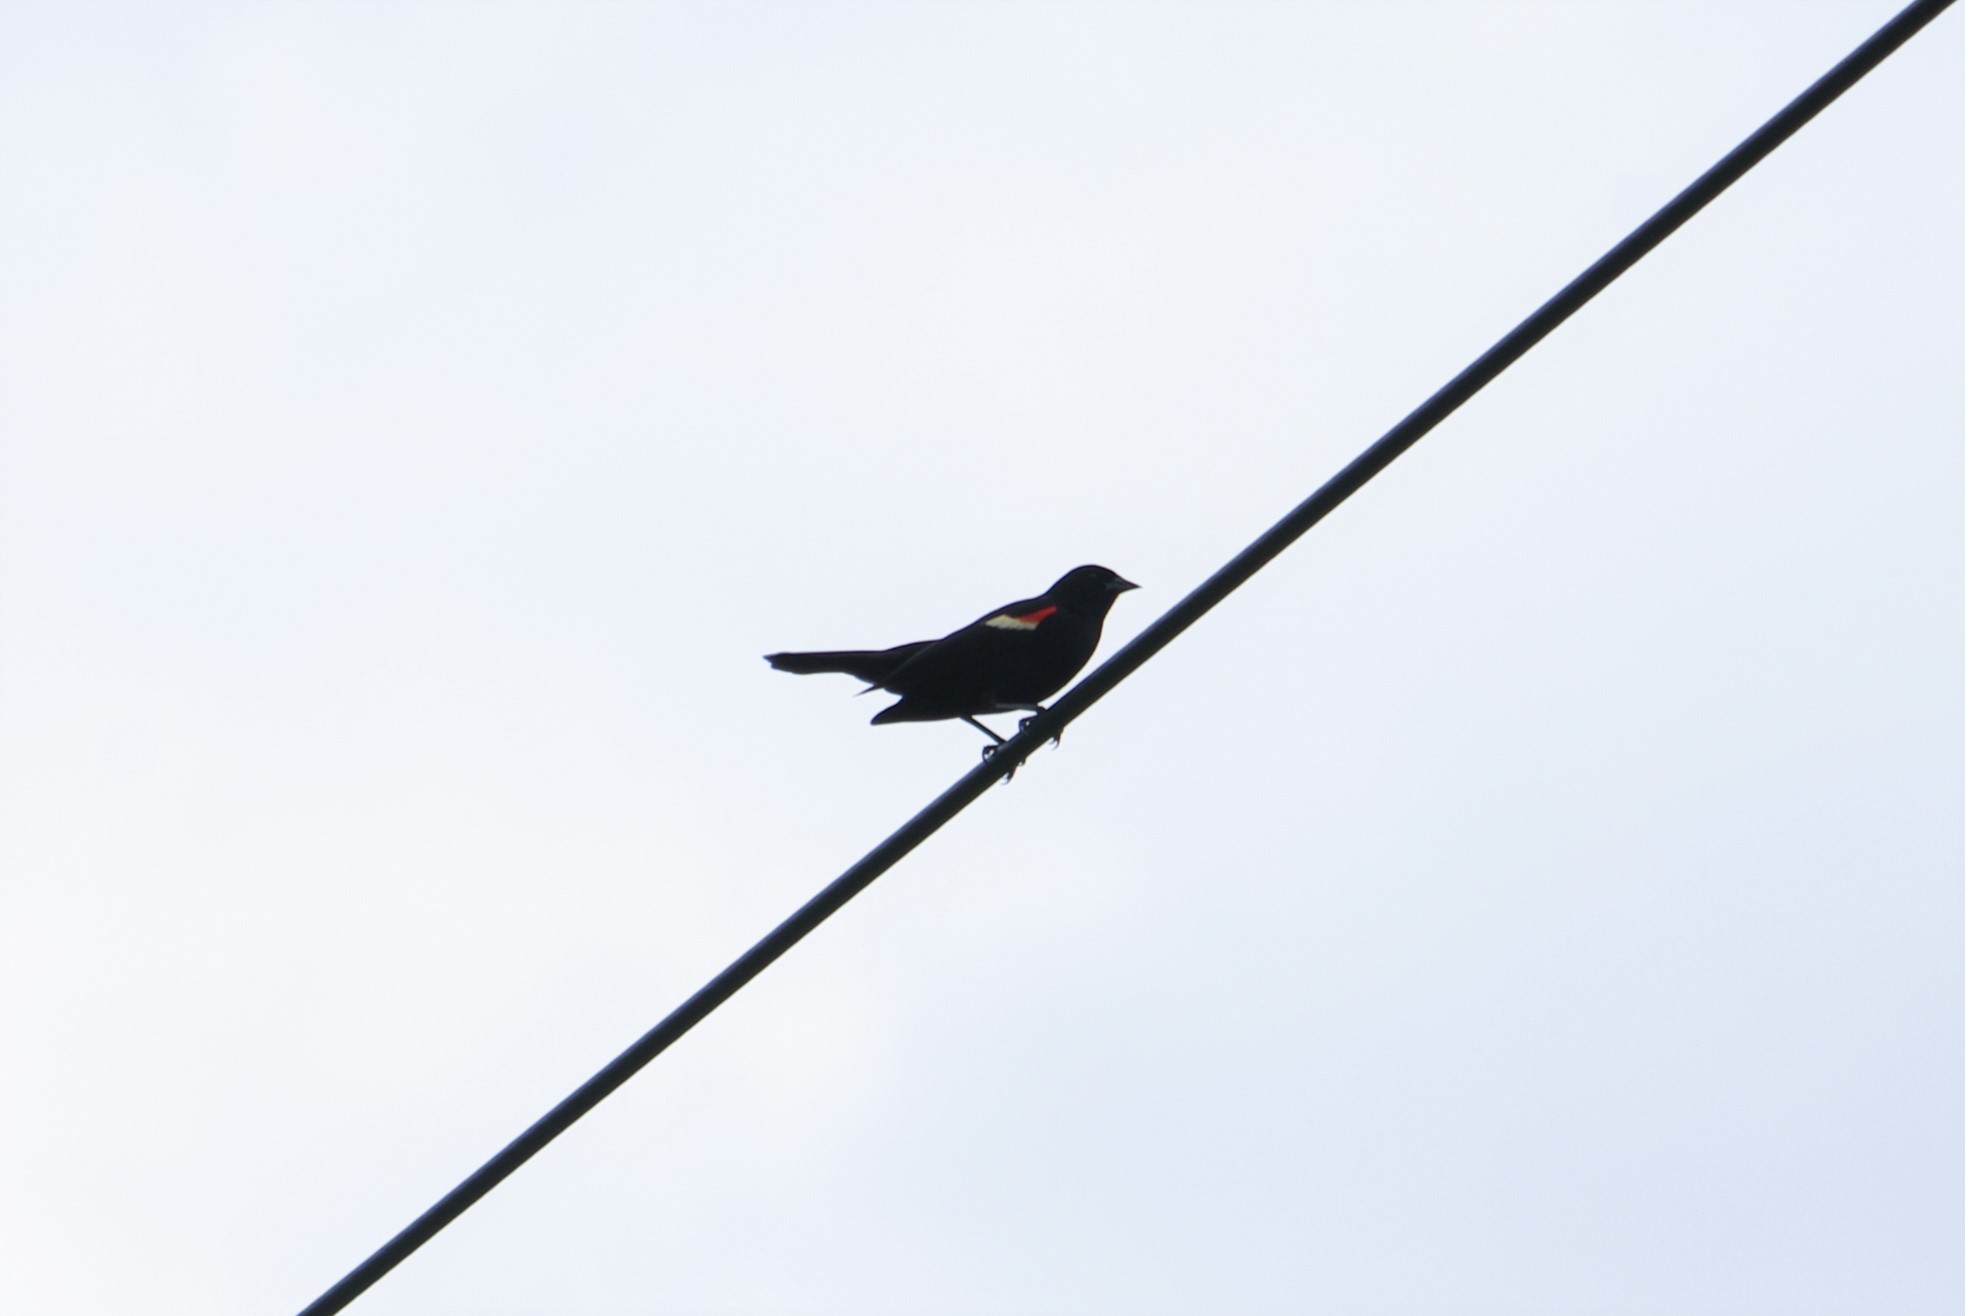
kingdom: Animalia
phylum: Chordata
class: Aves
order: Passeriformes
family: Icteridae
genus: Agelaius
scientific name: Agelaius phoeniceus
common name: Red-winged blackbird
